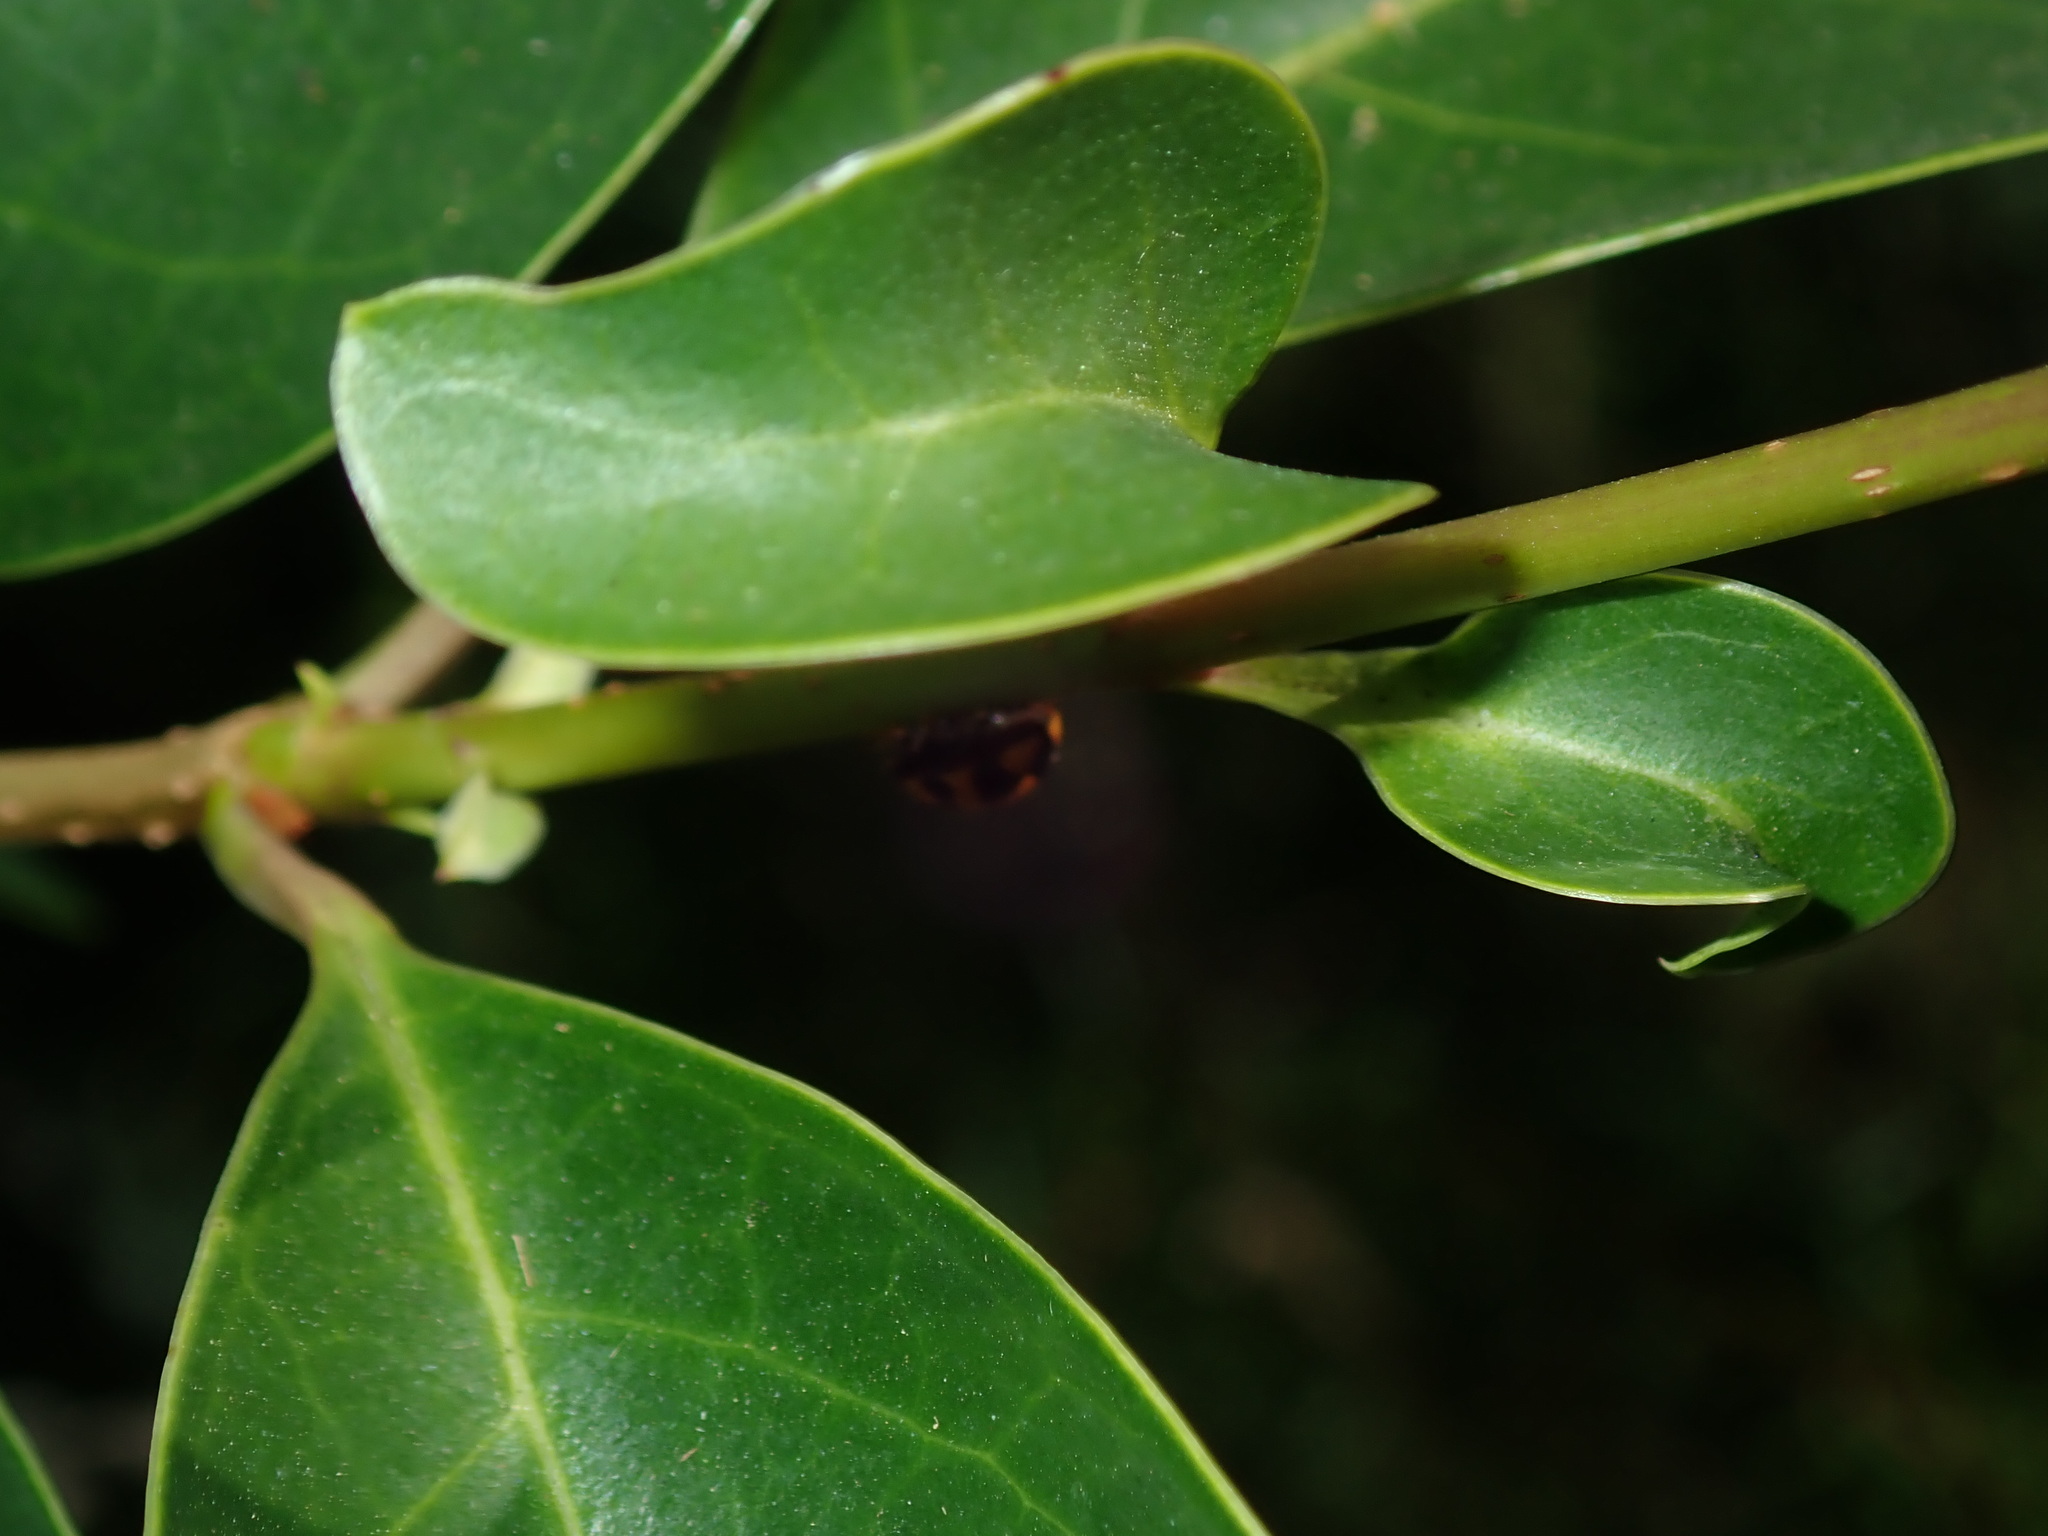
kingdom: Animalia
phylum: Arthropoda
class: Insecta
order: Coleoptera
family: Coccinellidae
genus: Coelophora
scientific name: Coelophora inaequalis
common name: Common australian lady beetle
